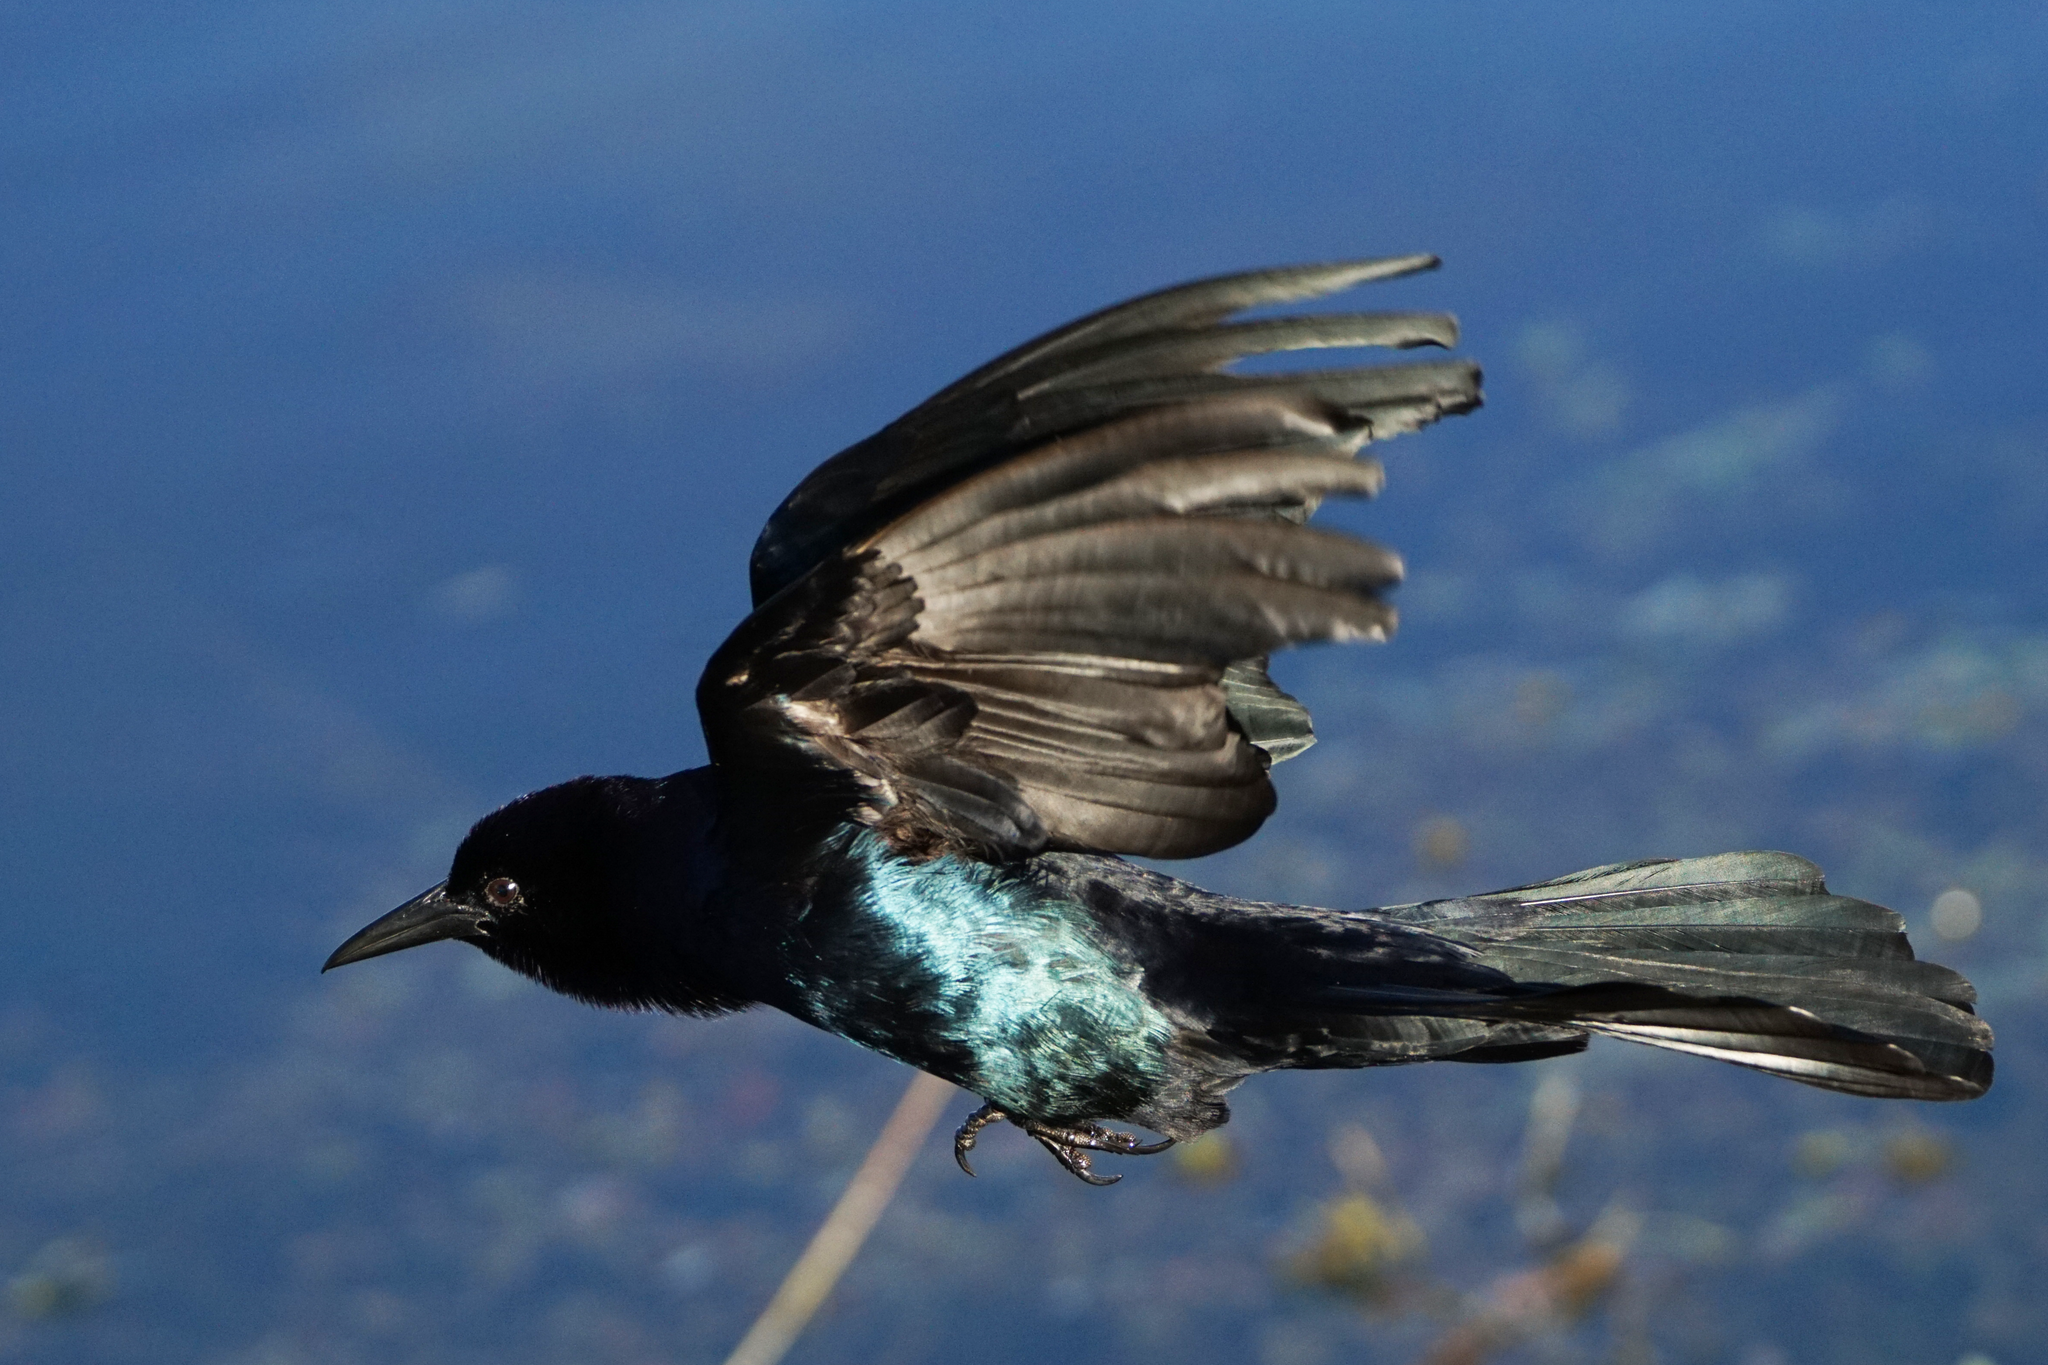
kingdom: Animalia
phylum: Chordata
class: Aves
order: Passeriformes
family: Icteridae
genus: Quiscalus
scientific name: Quiscalus major
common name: Boat-tailed grackle
